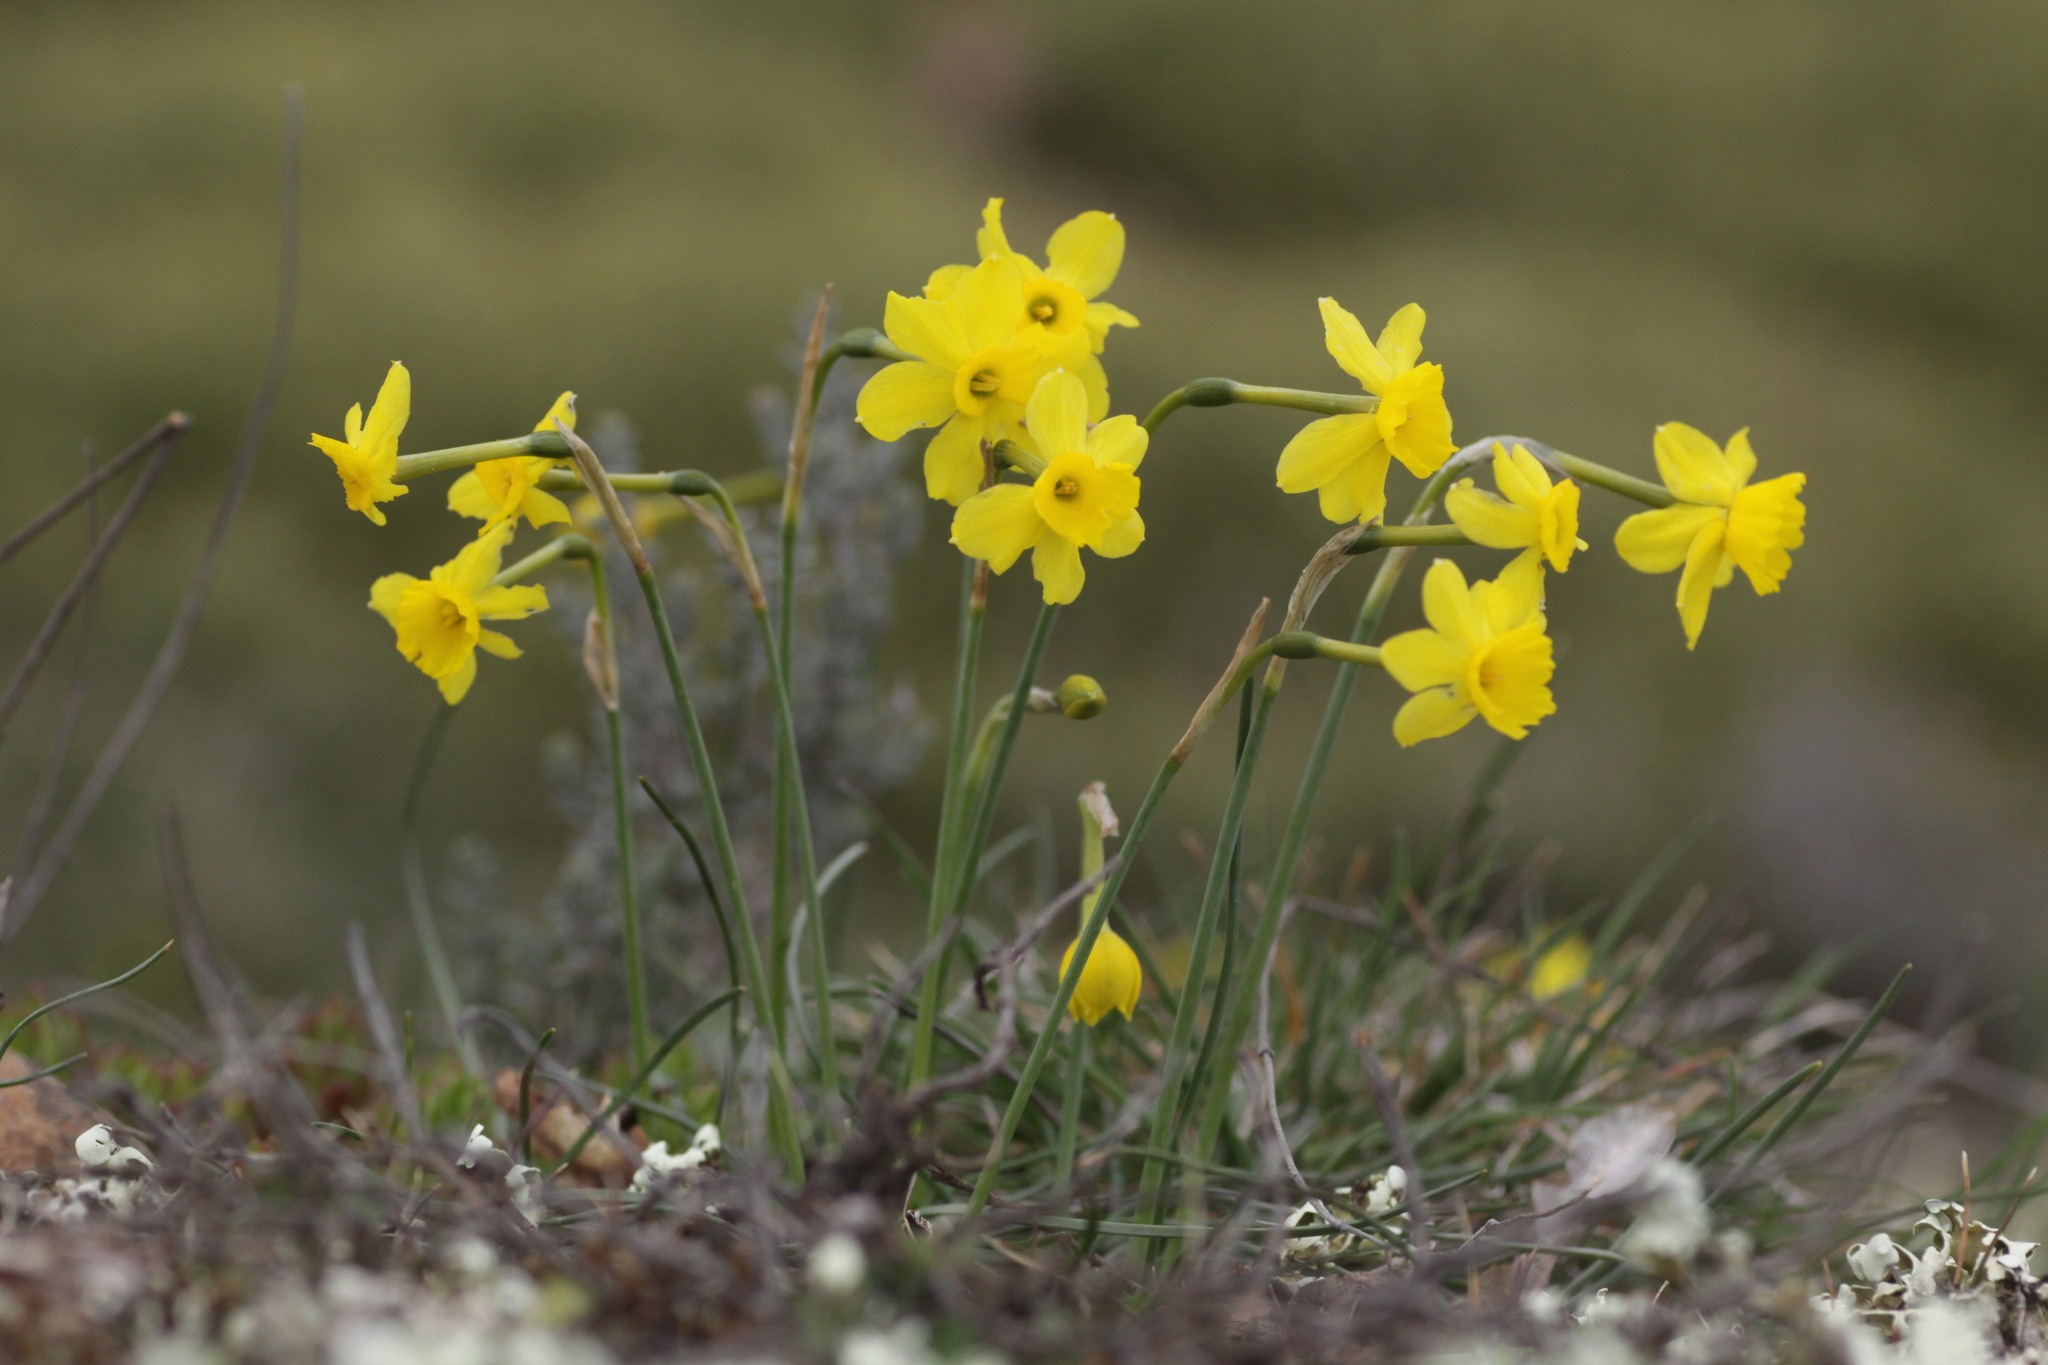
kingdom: Plantae
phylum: Tracheophyta
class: Liliopsida
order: Asparagales
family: Amaryllidaceae
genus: Narcissus
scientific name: Narcissus assoanus
